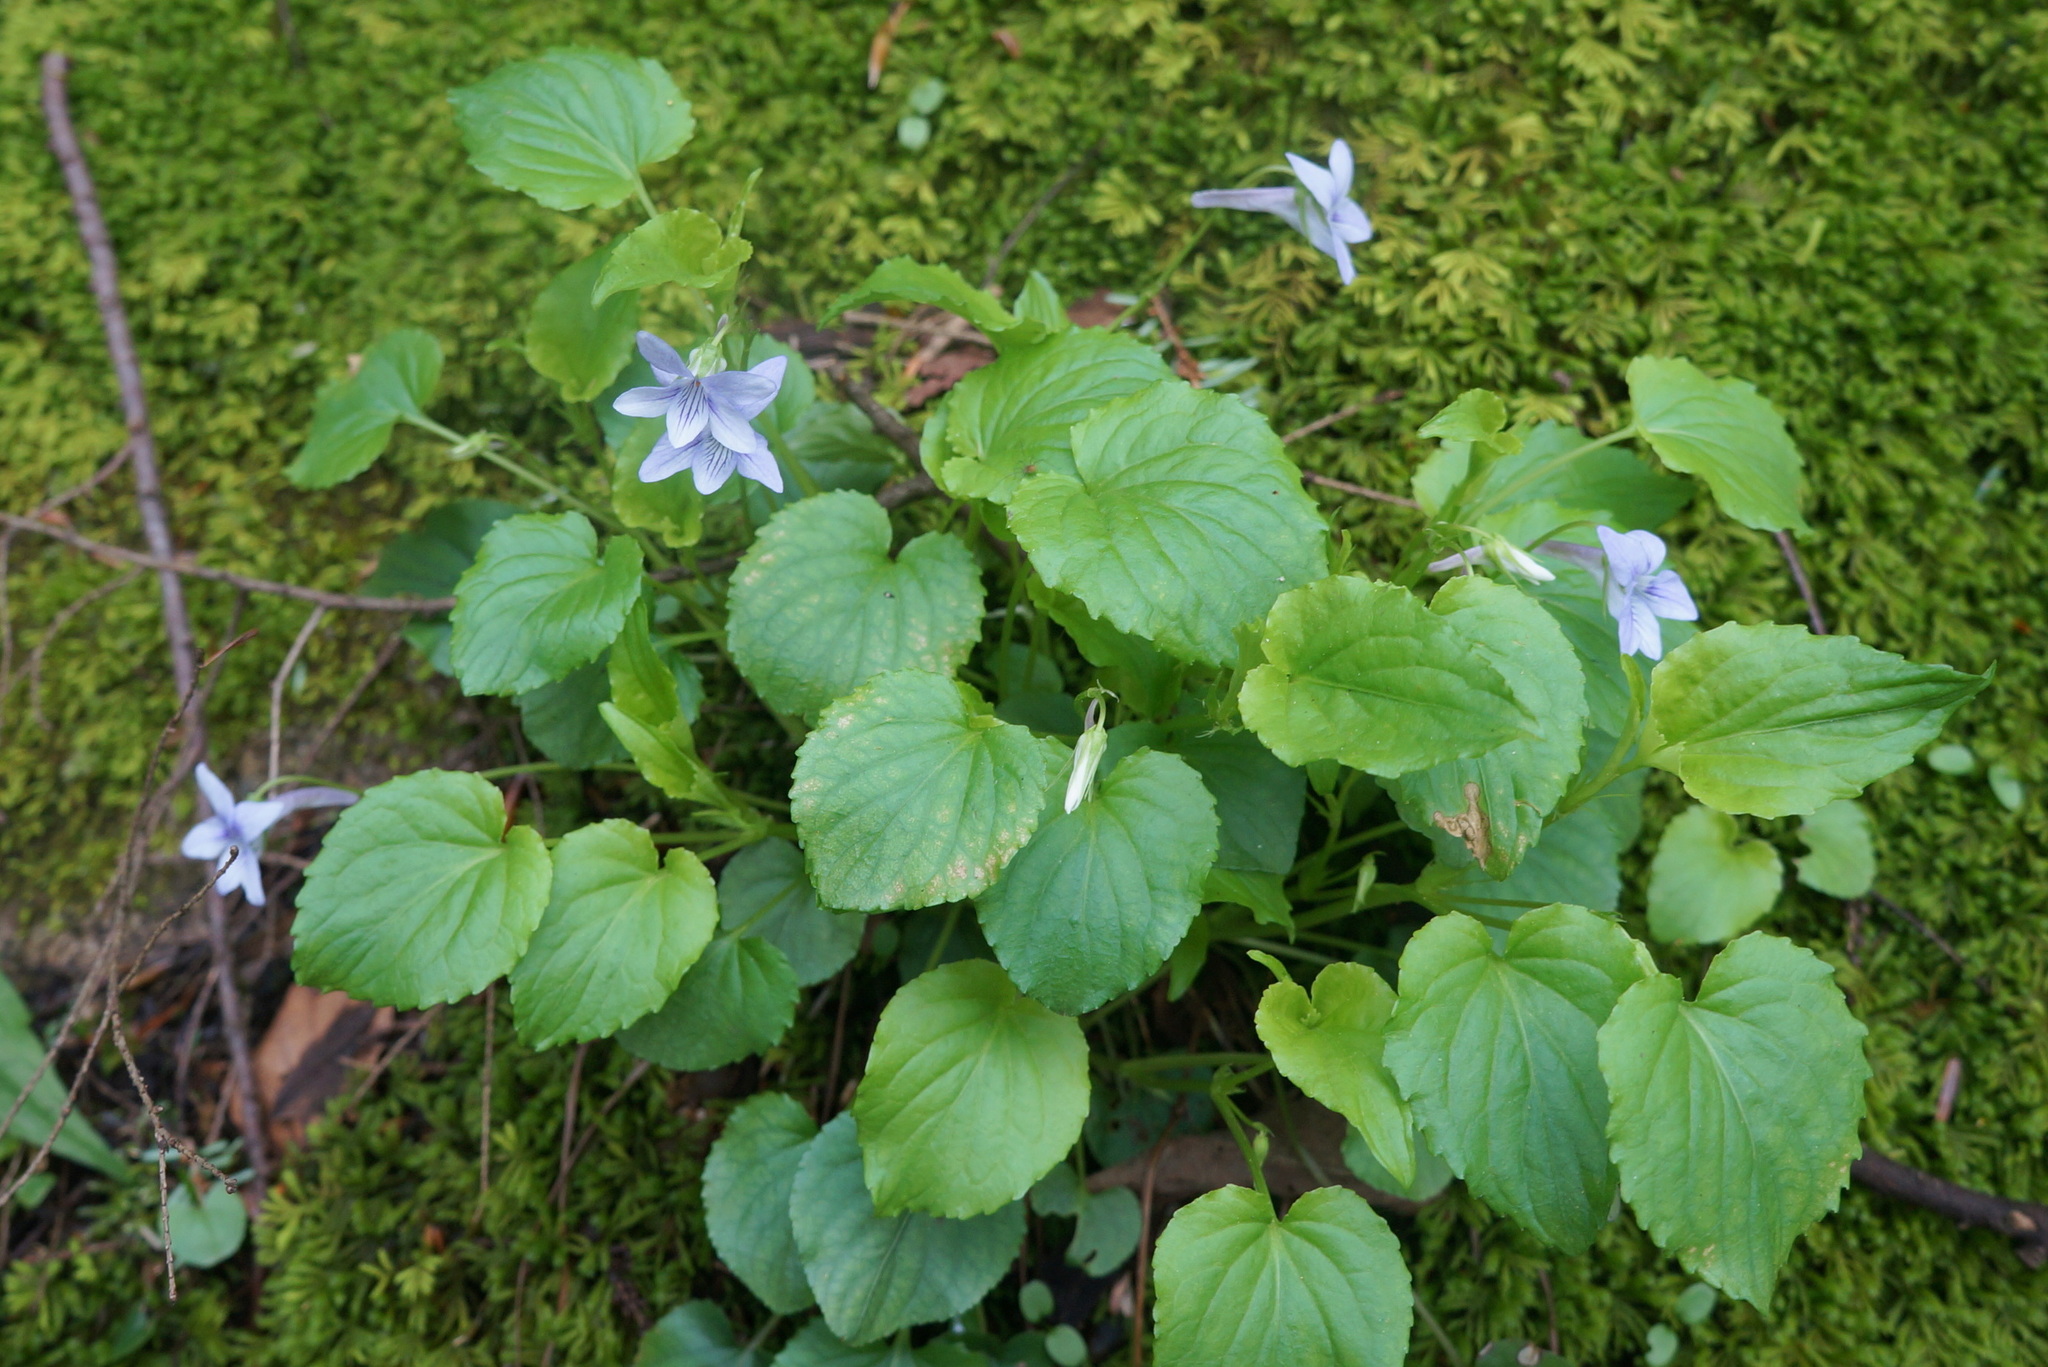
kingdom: Plantae
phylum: Tracheophyta
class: Magnoliopsida
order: Malpighiales
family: Violaceae
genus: Viola
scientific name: Viola rostrata
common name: Long-spur violet
